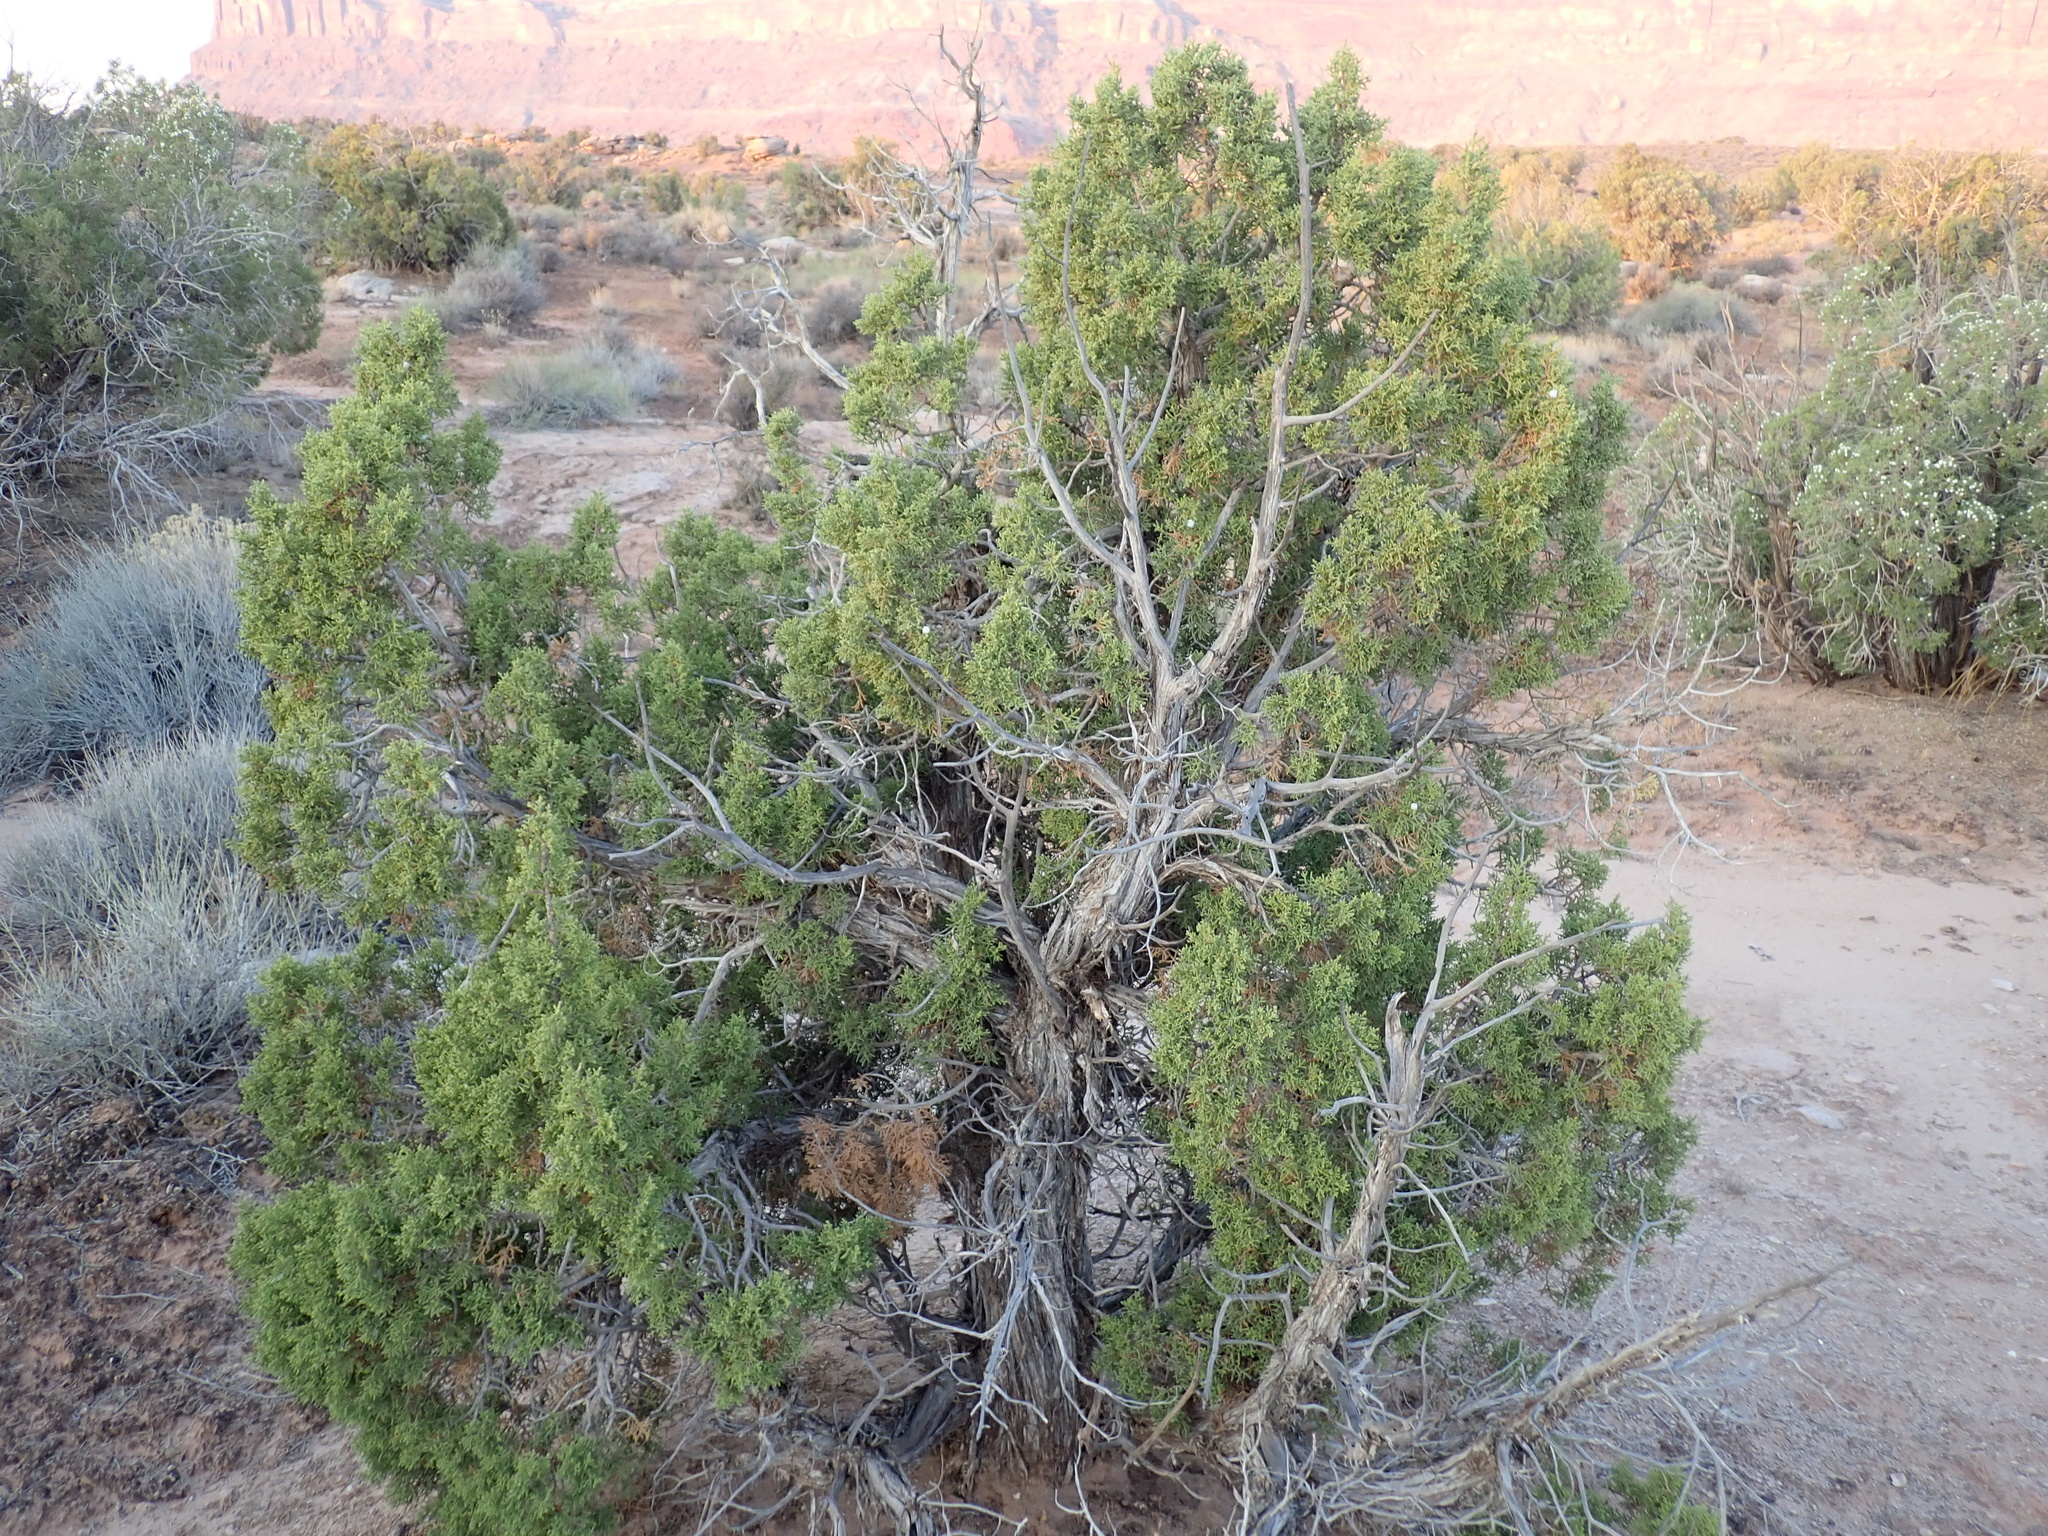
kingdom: Plantae
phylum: Tracheophyta
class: Pinopsida
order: Pinales
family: Cupressaceae
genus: Juniperus
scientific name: Juniperus osteosperma
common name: Utah juniper
